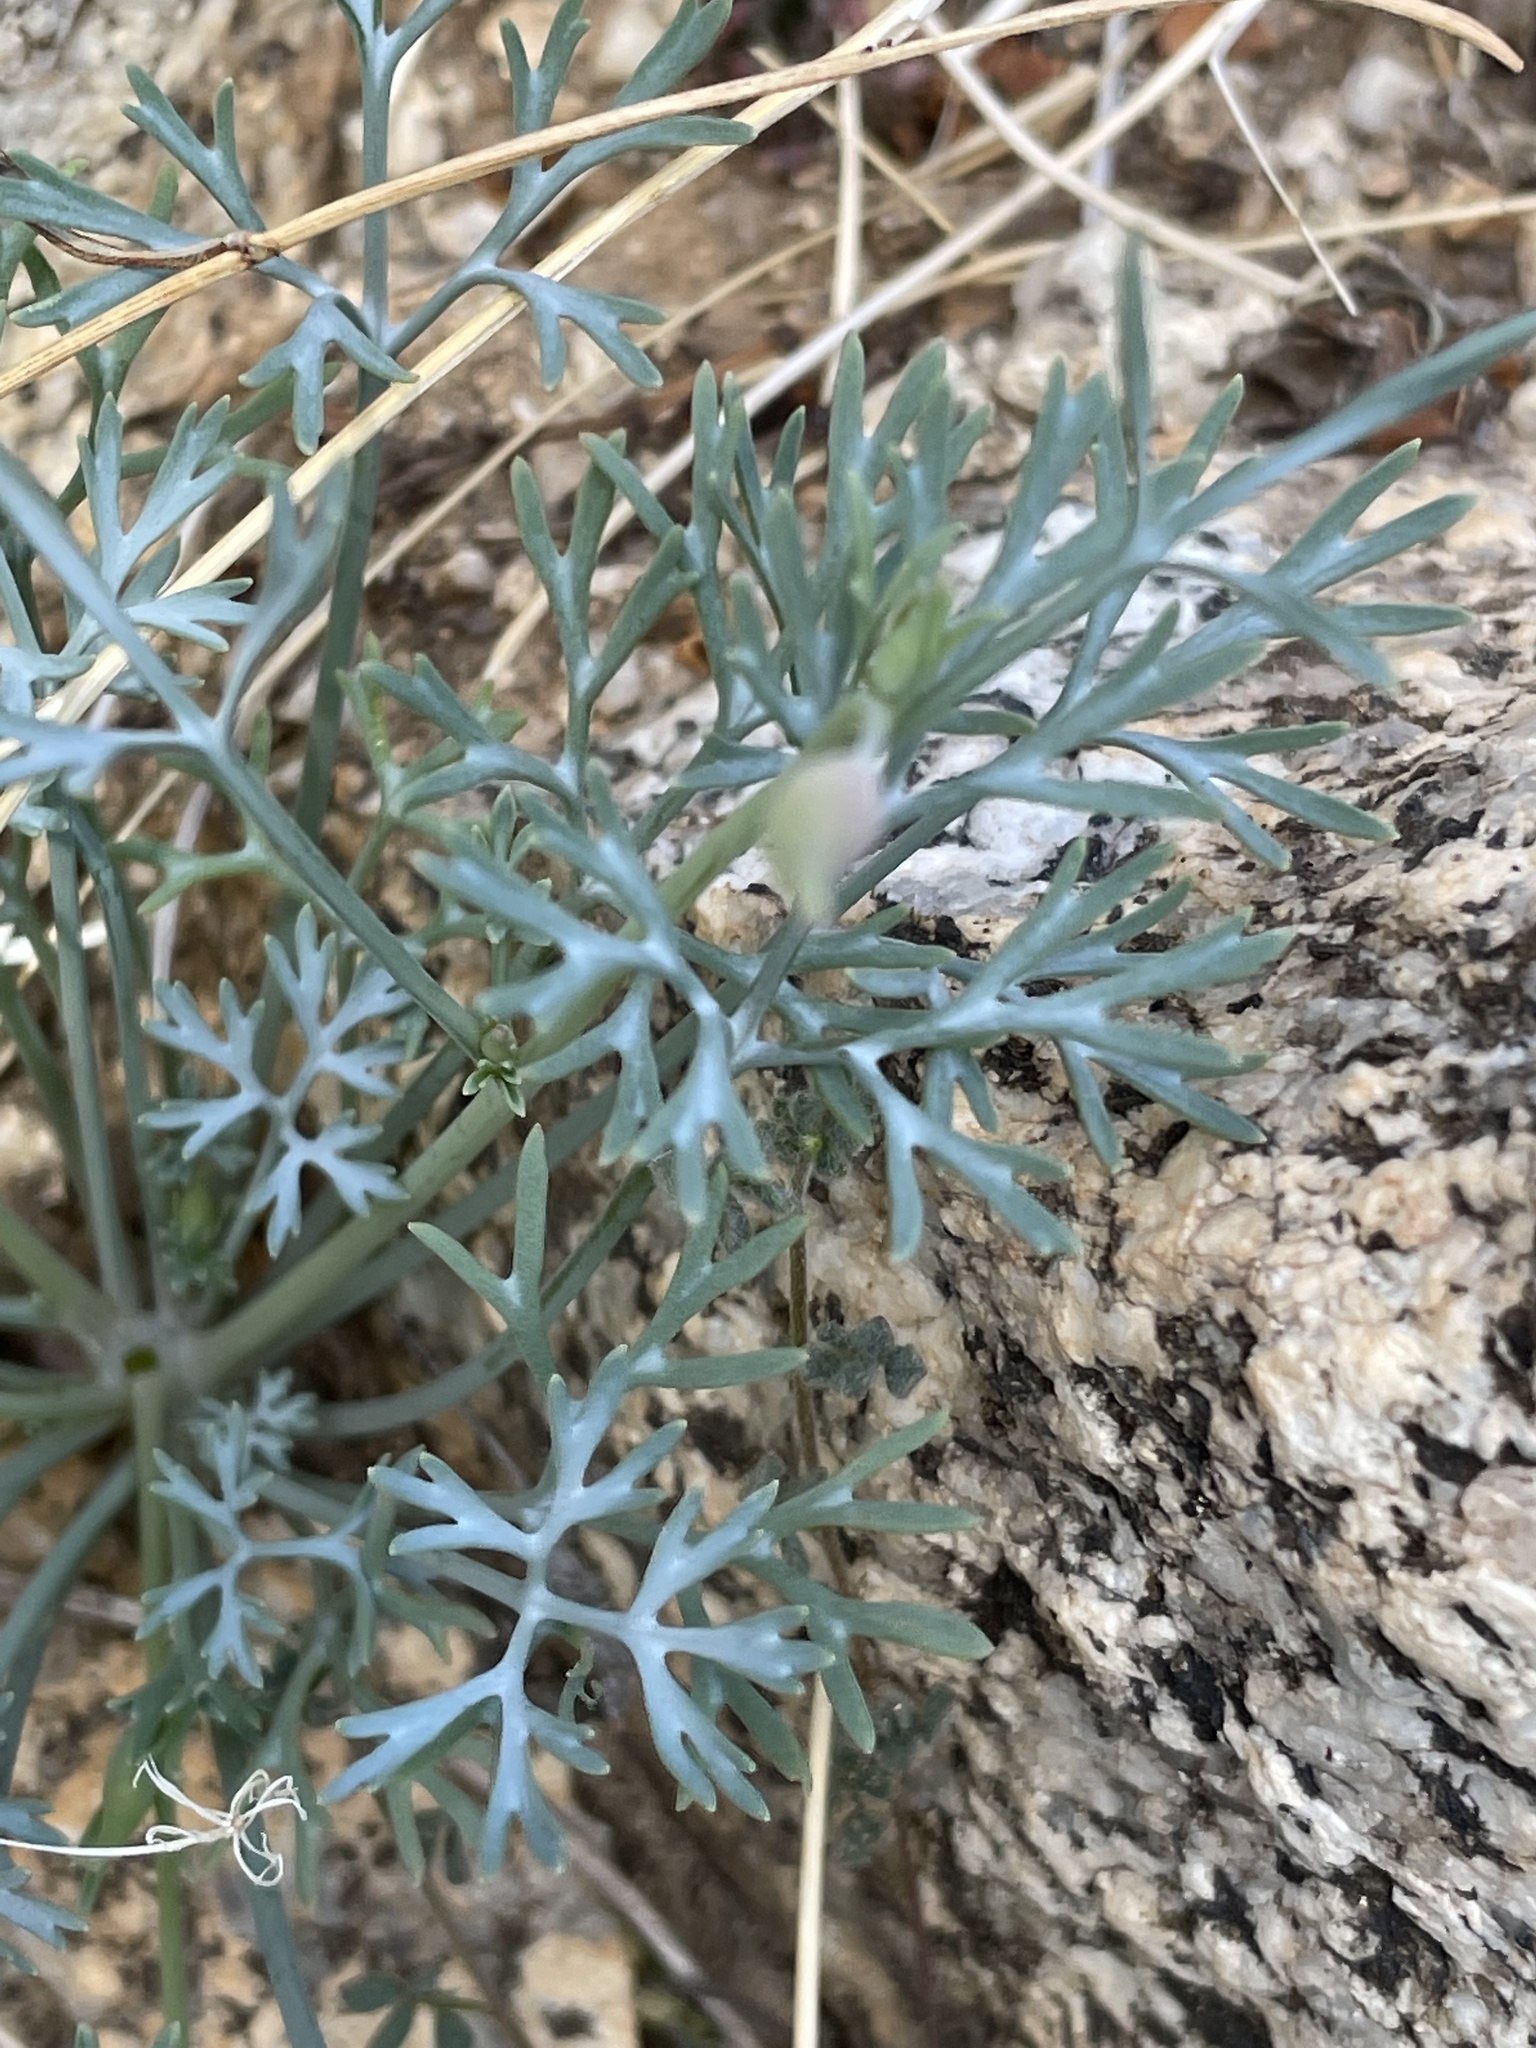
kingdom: Plantae
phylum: Tracheophyta
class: Magnoliopsida
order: Ranunculales
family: Papaveraceae
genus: Eschscholzia
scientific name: Eschscholzia parishii
